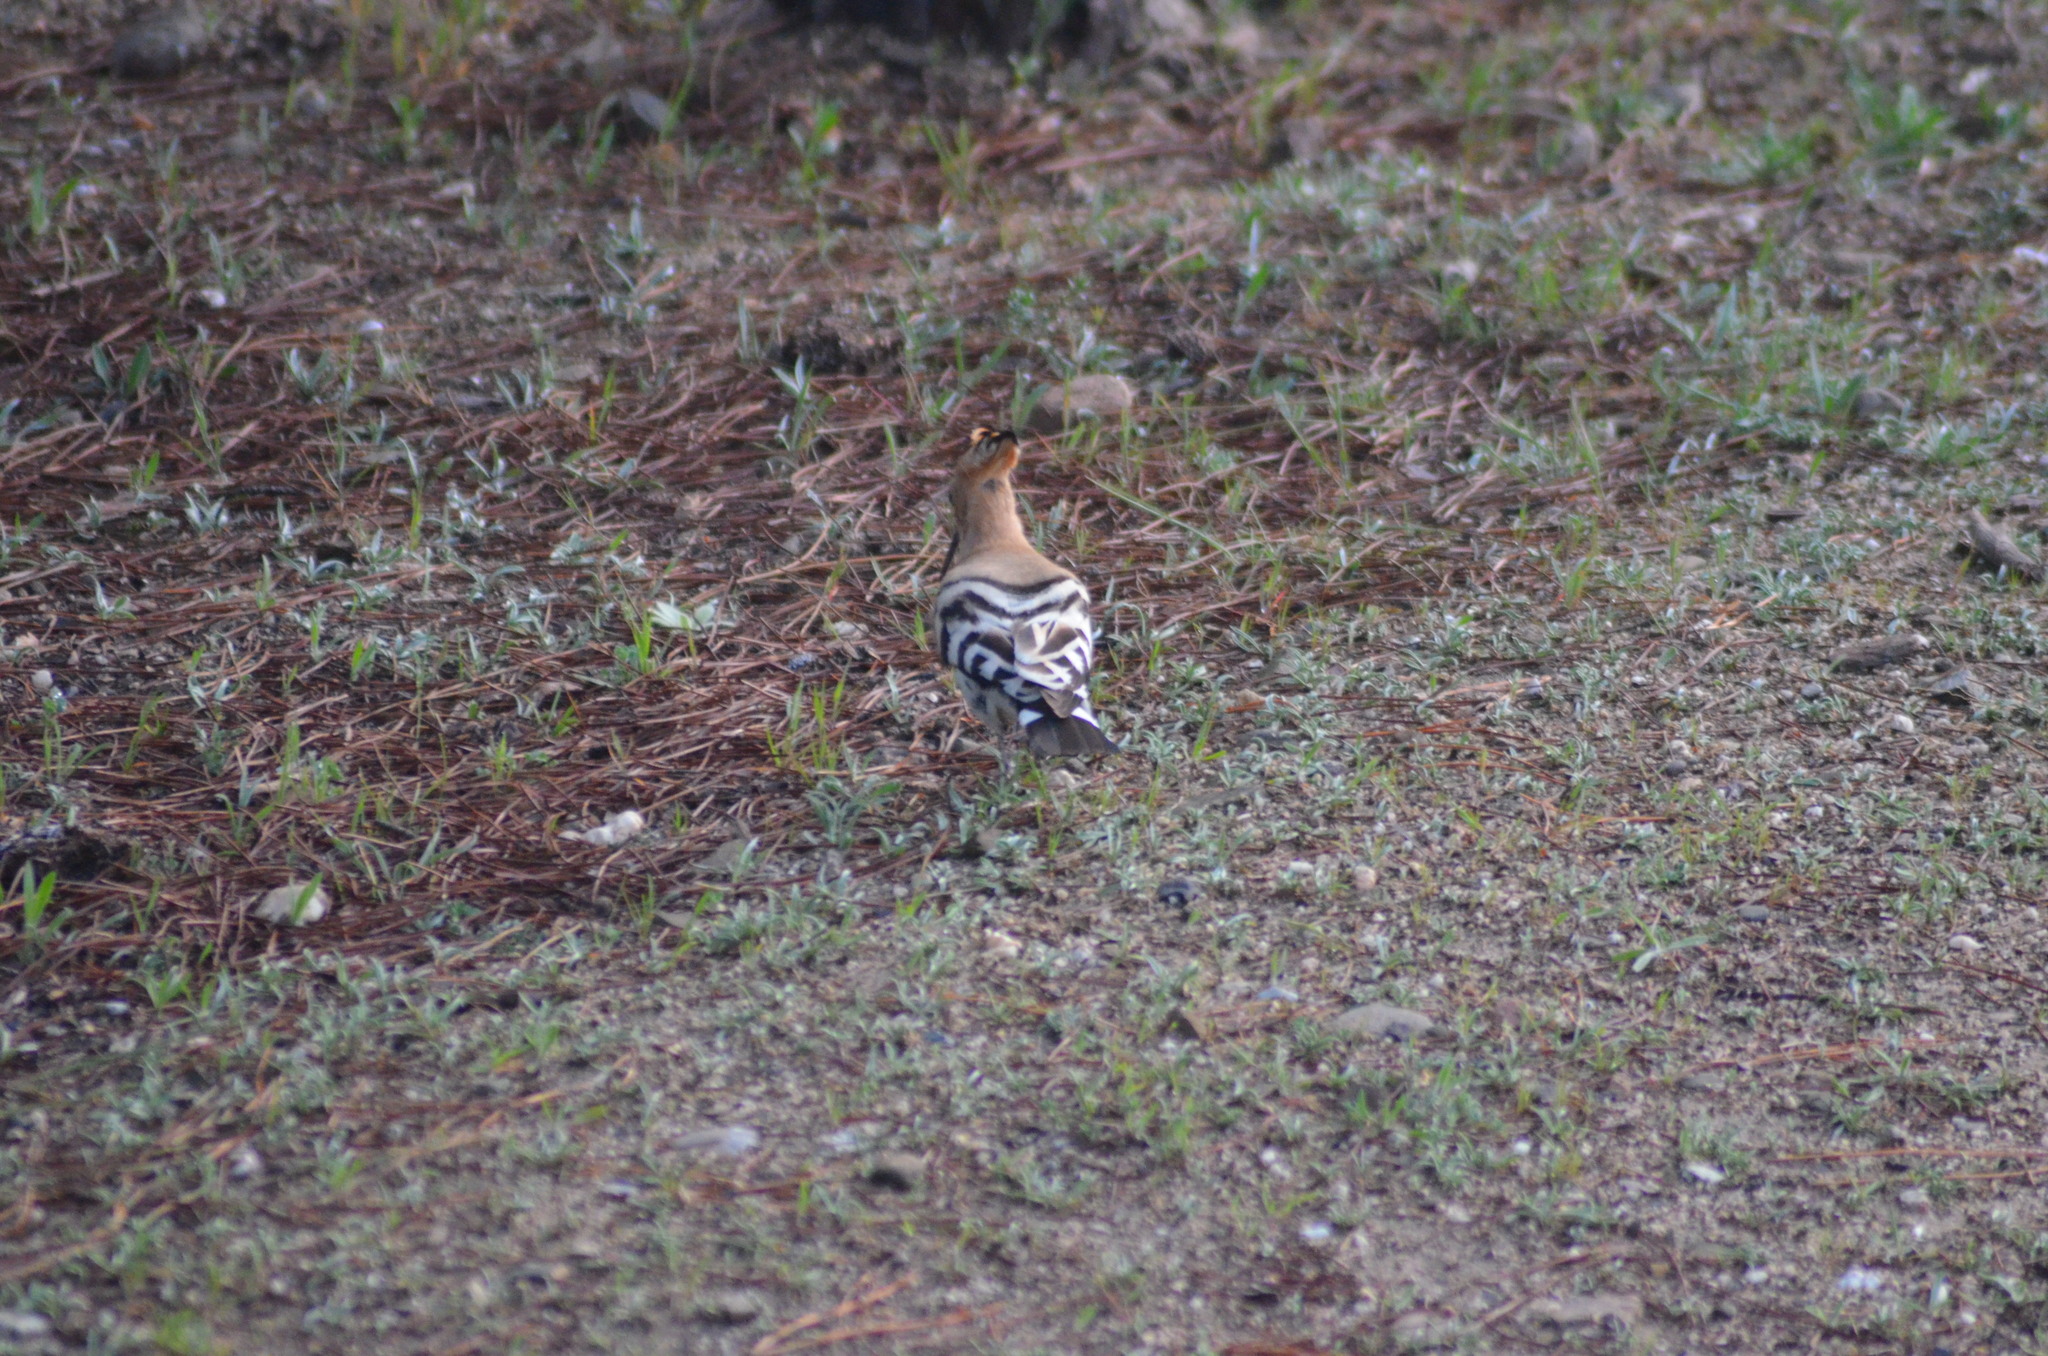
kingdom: Animalia
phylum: Chordata
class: Aves
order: Bucerotiformes
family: Upupidae
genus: Upupa
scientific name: Upupa epops
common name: Eurasian hoopoe
